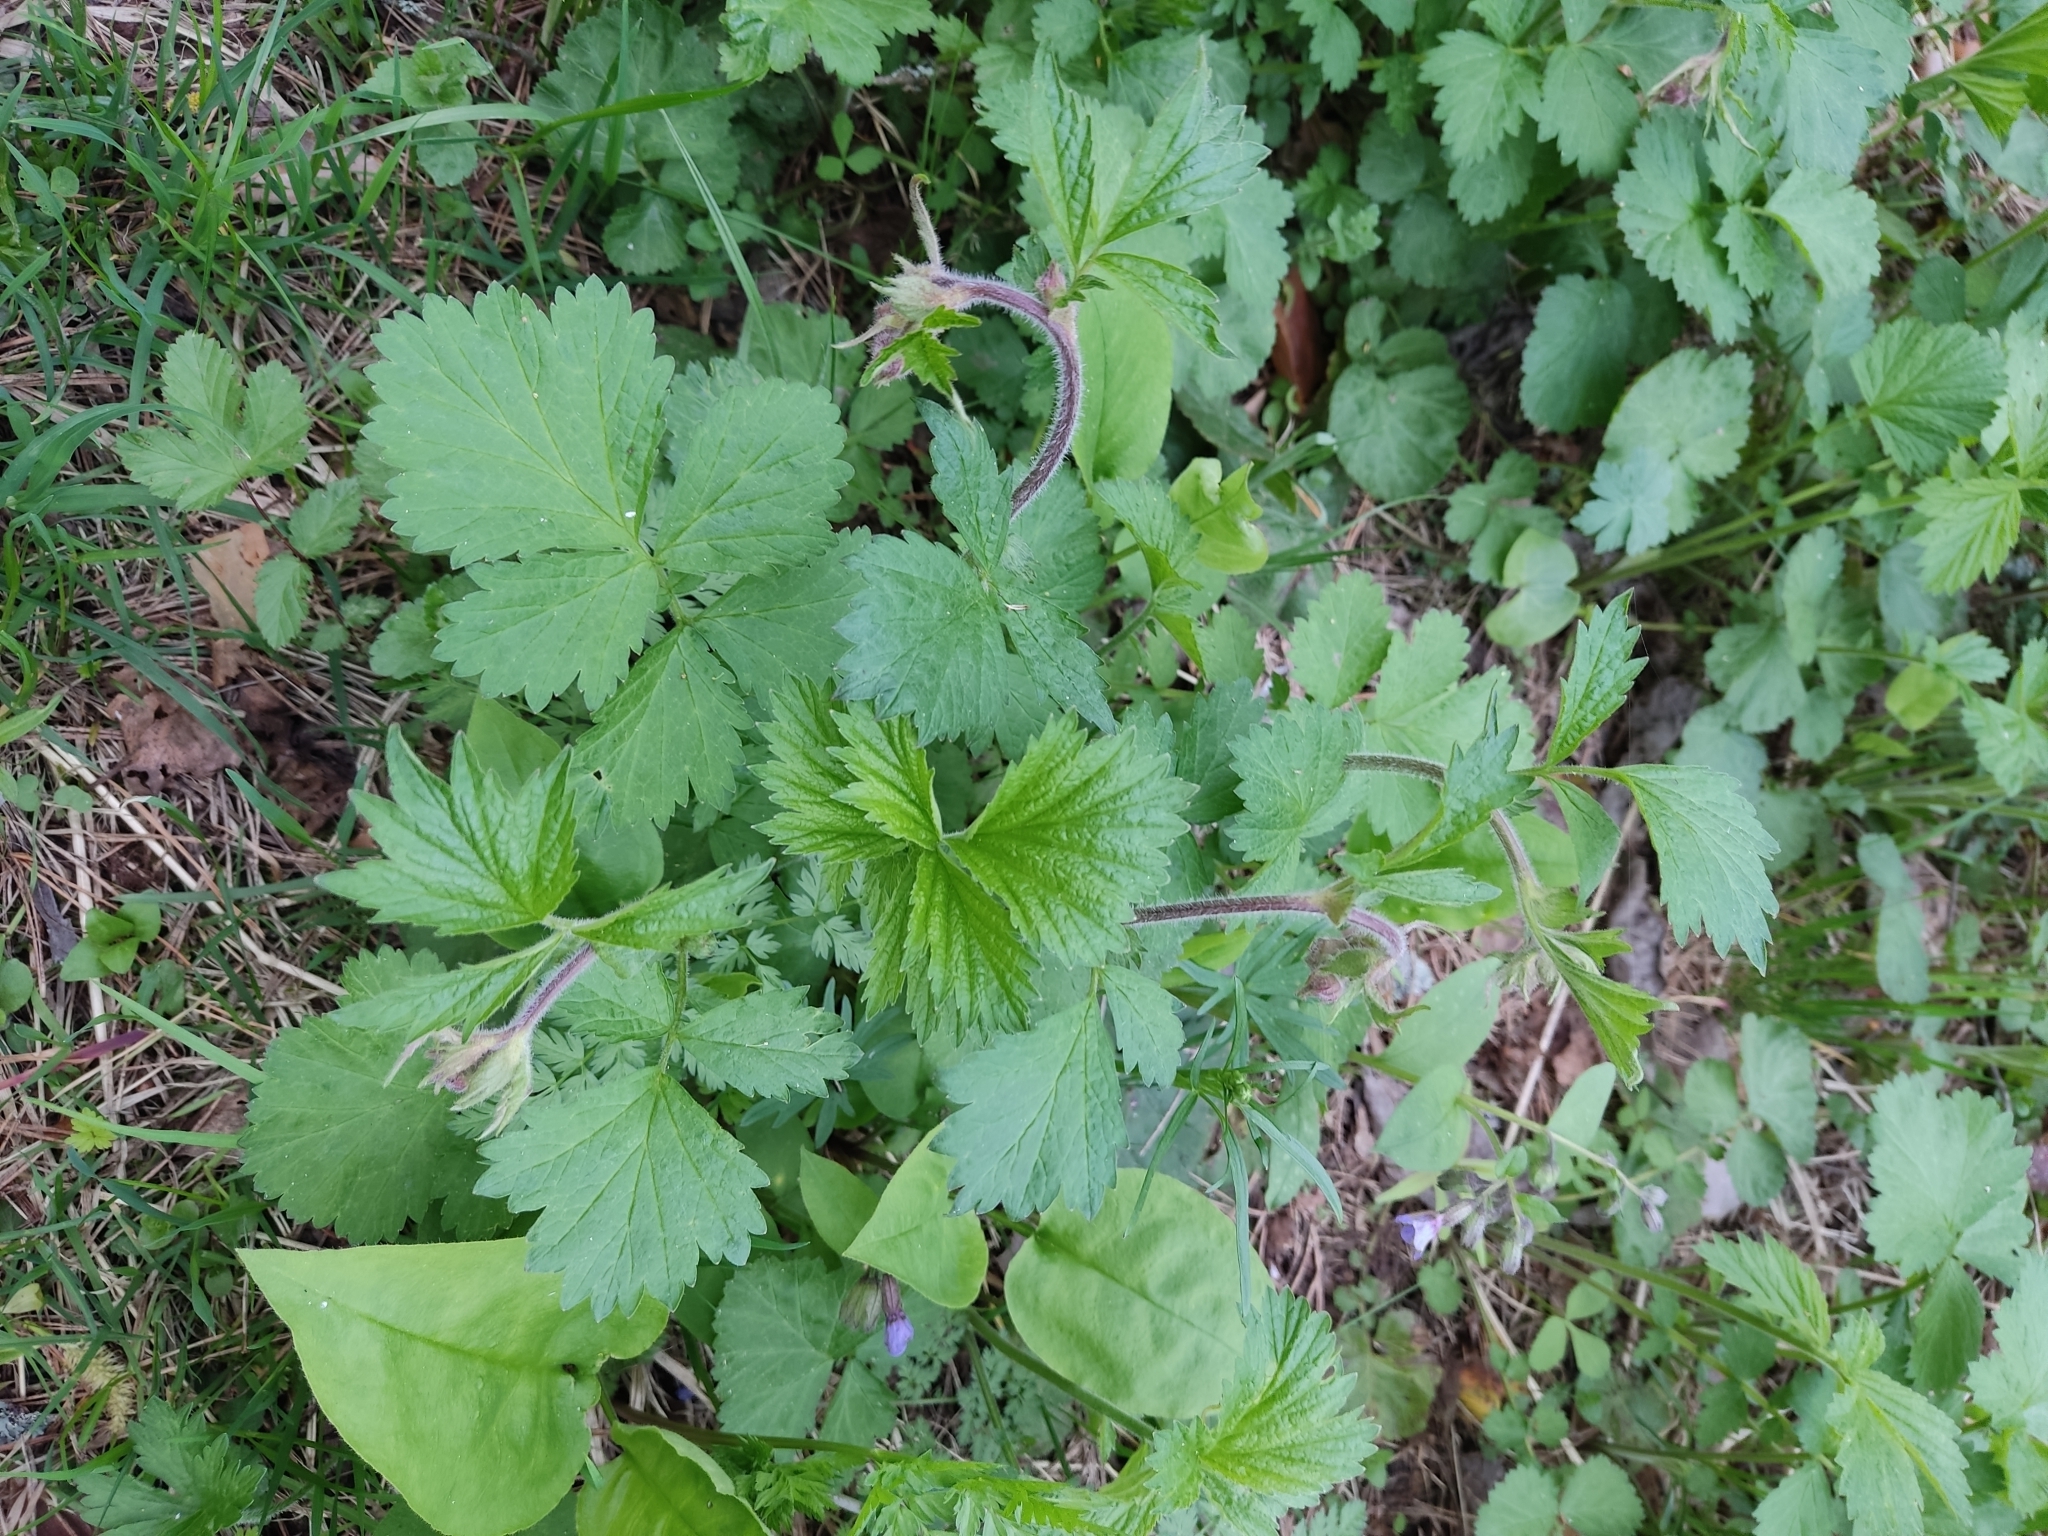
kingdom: Plantae
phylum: Tracheophyta
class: Magnoliopsida
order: Rosales
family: Rosaceae
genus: Geum
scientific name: Geum rivale
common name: Water avens
